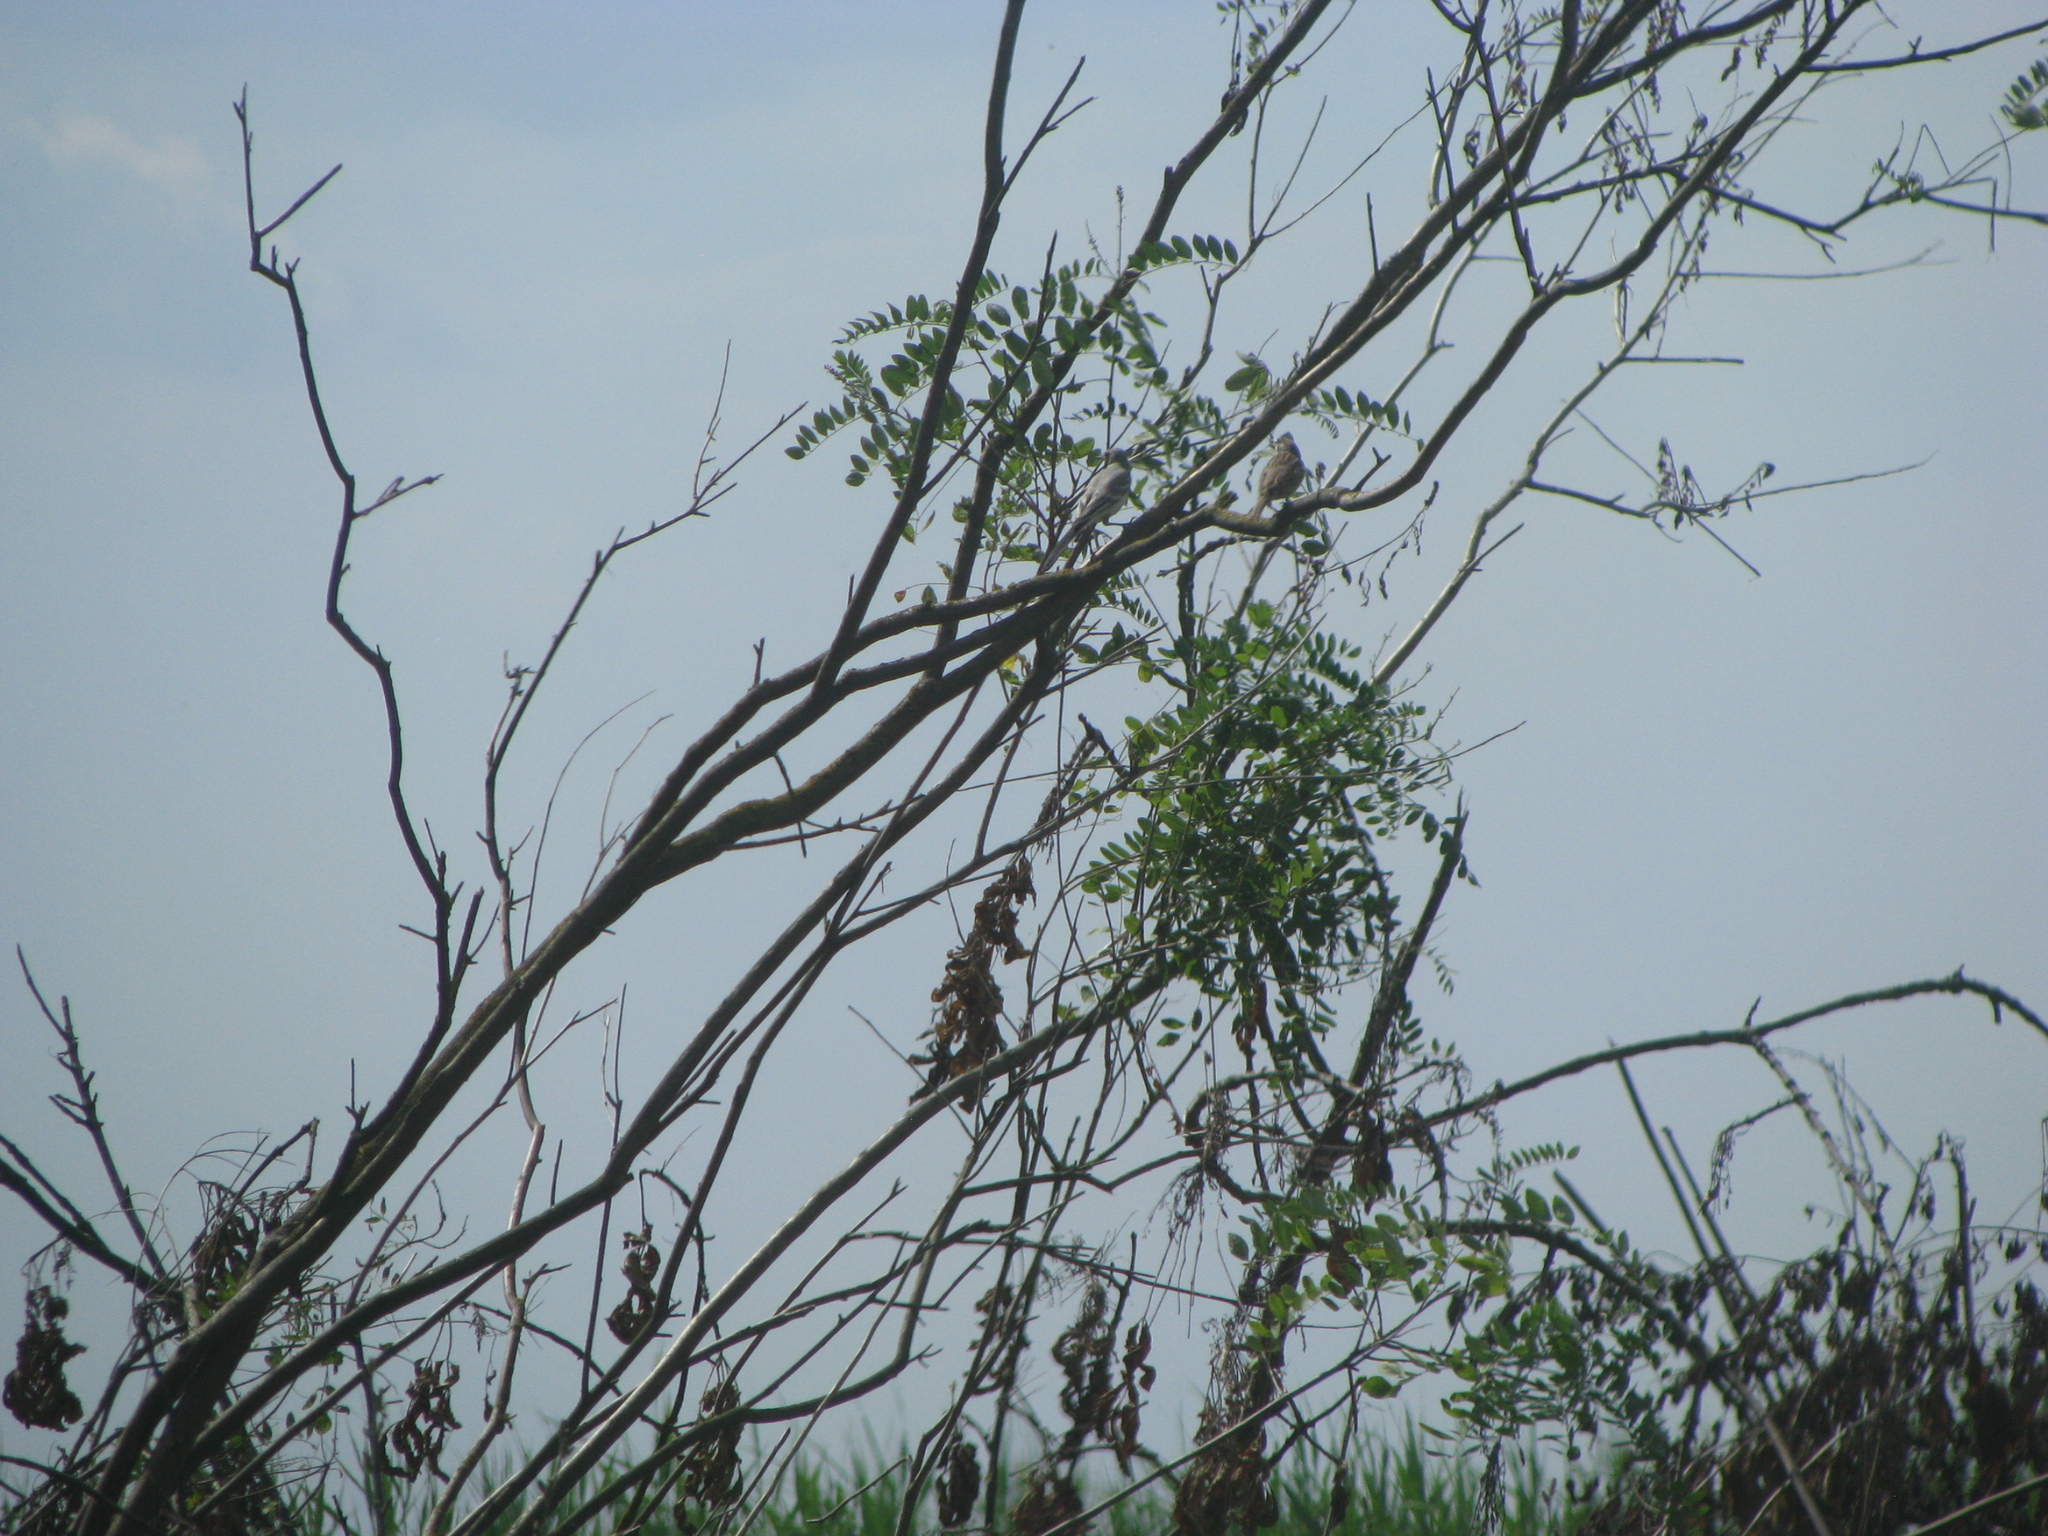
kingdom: Animalia
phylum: Chordata
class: Aves
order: Passeriformes
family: Motacillidae
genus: Motacilla
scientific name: Motacilla alba
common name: White wagtail
